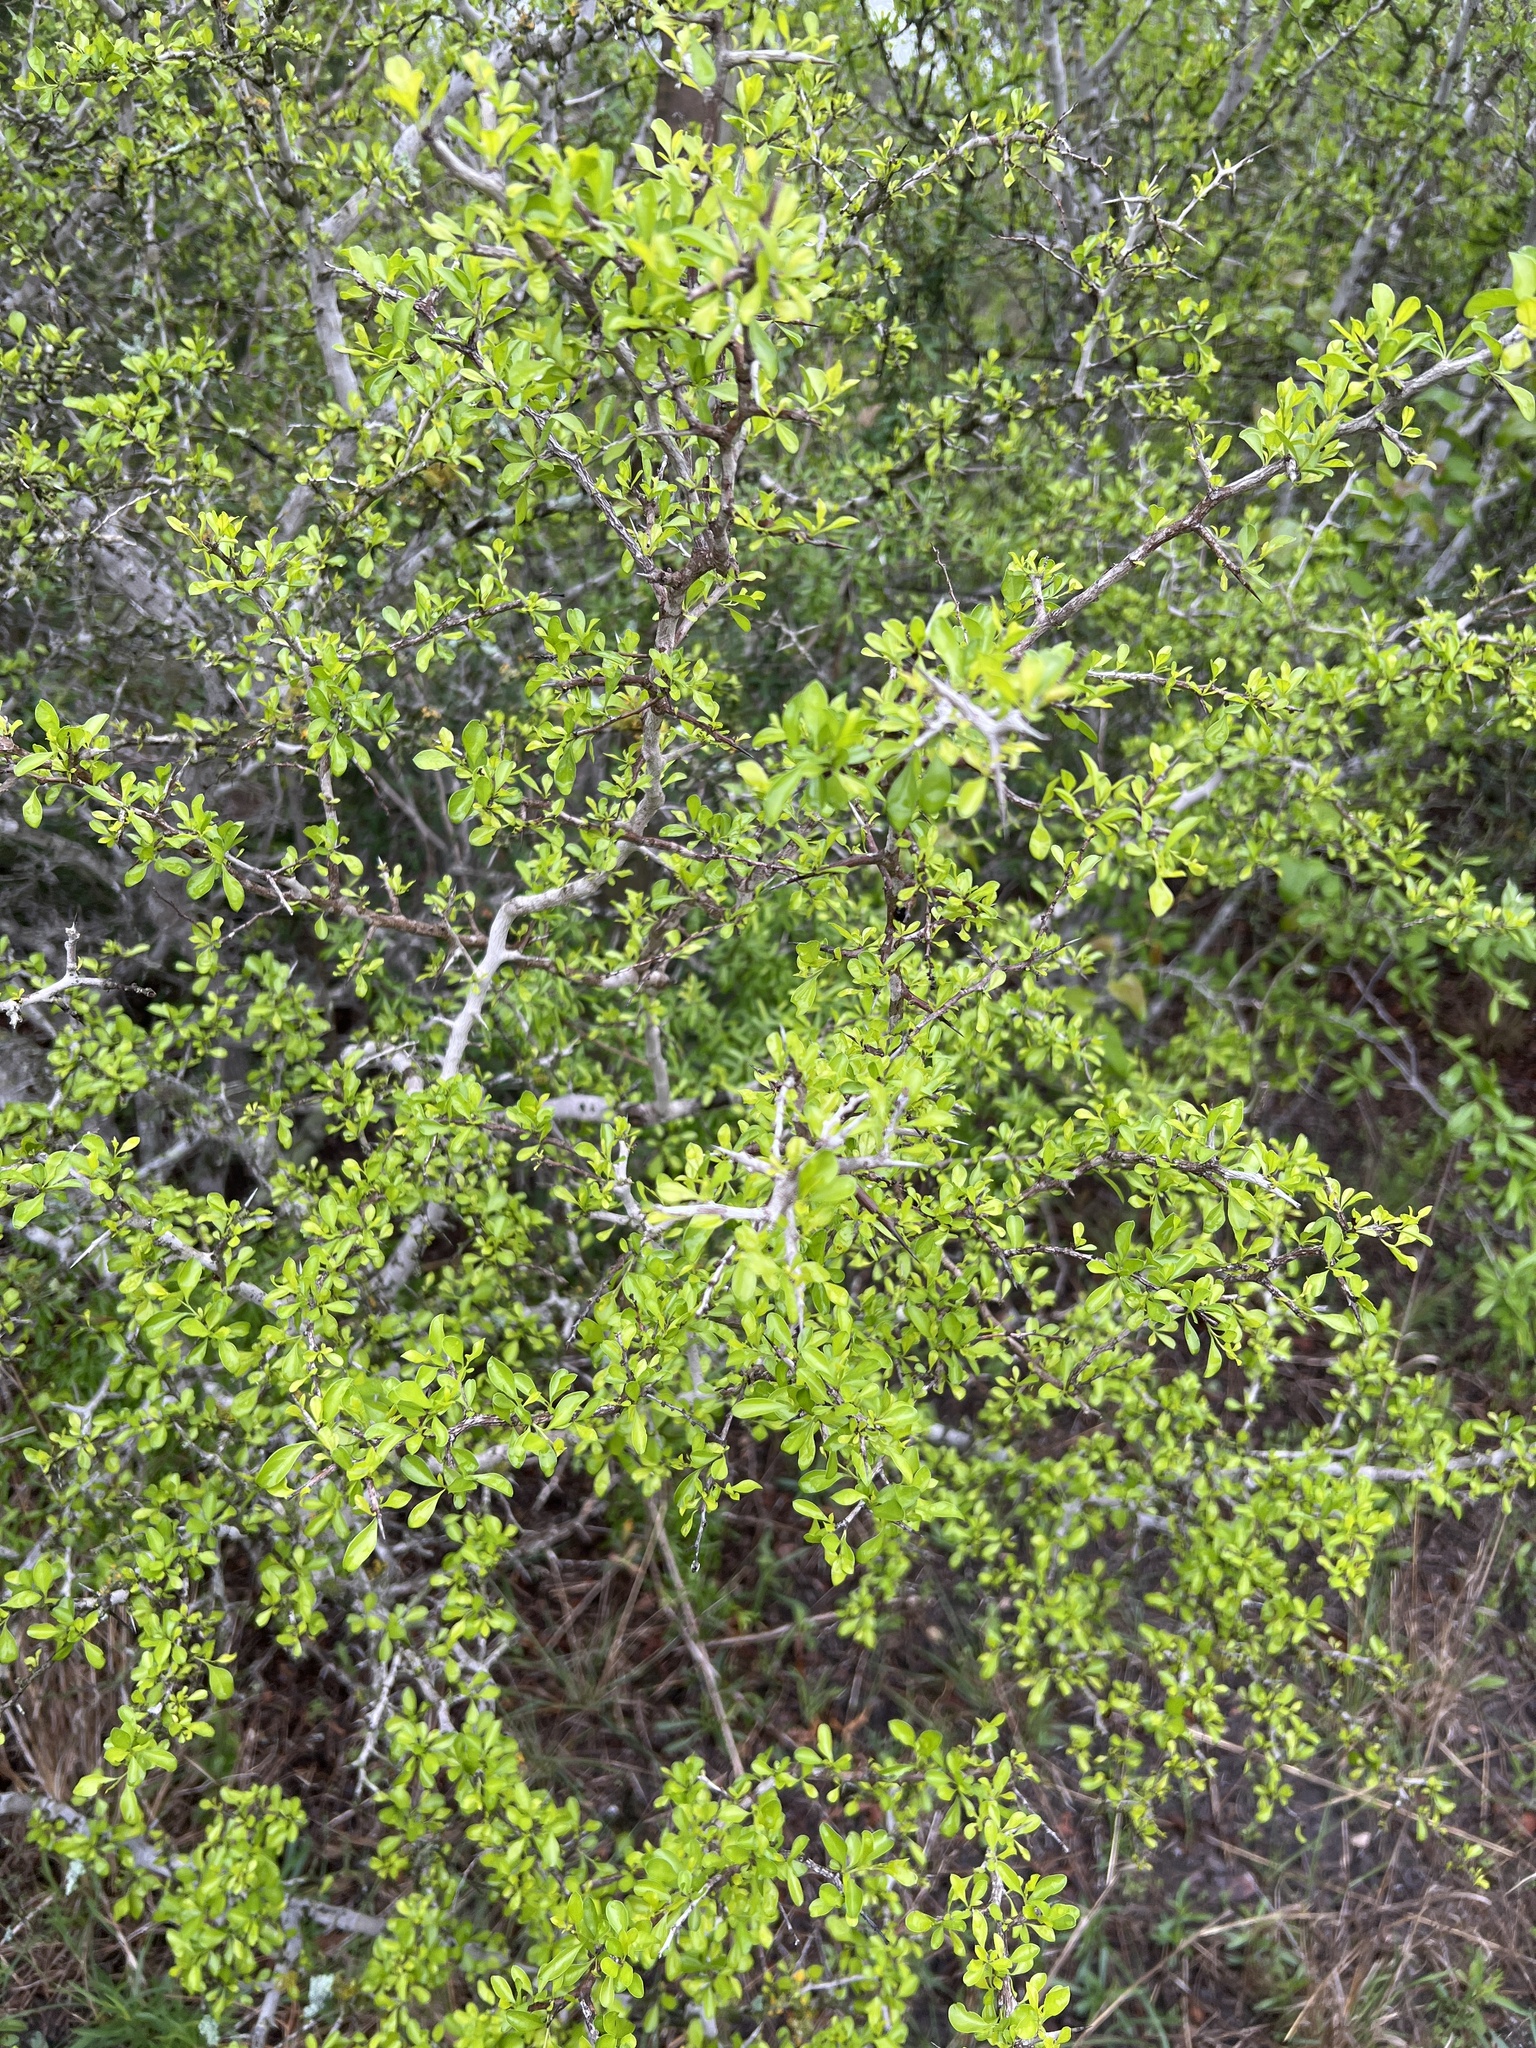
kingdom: Plantae
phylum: Tracheophyta
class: Magnoliopsida
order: Rosales
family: Rhamnaceae
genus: Condalia
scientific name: Condalia hookeri
